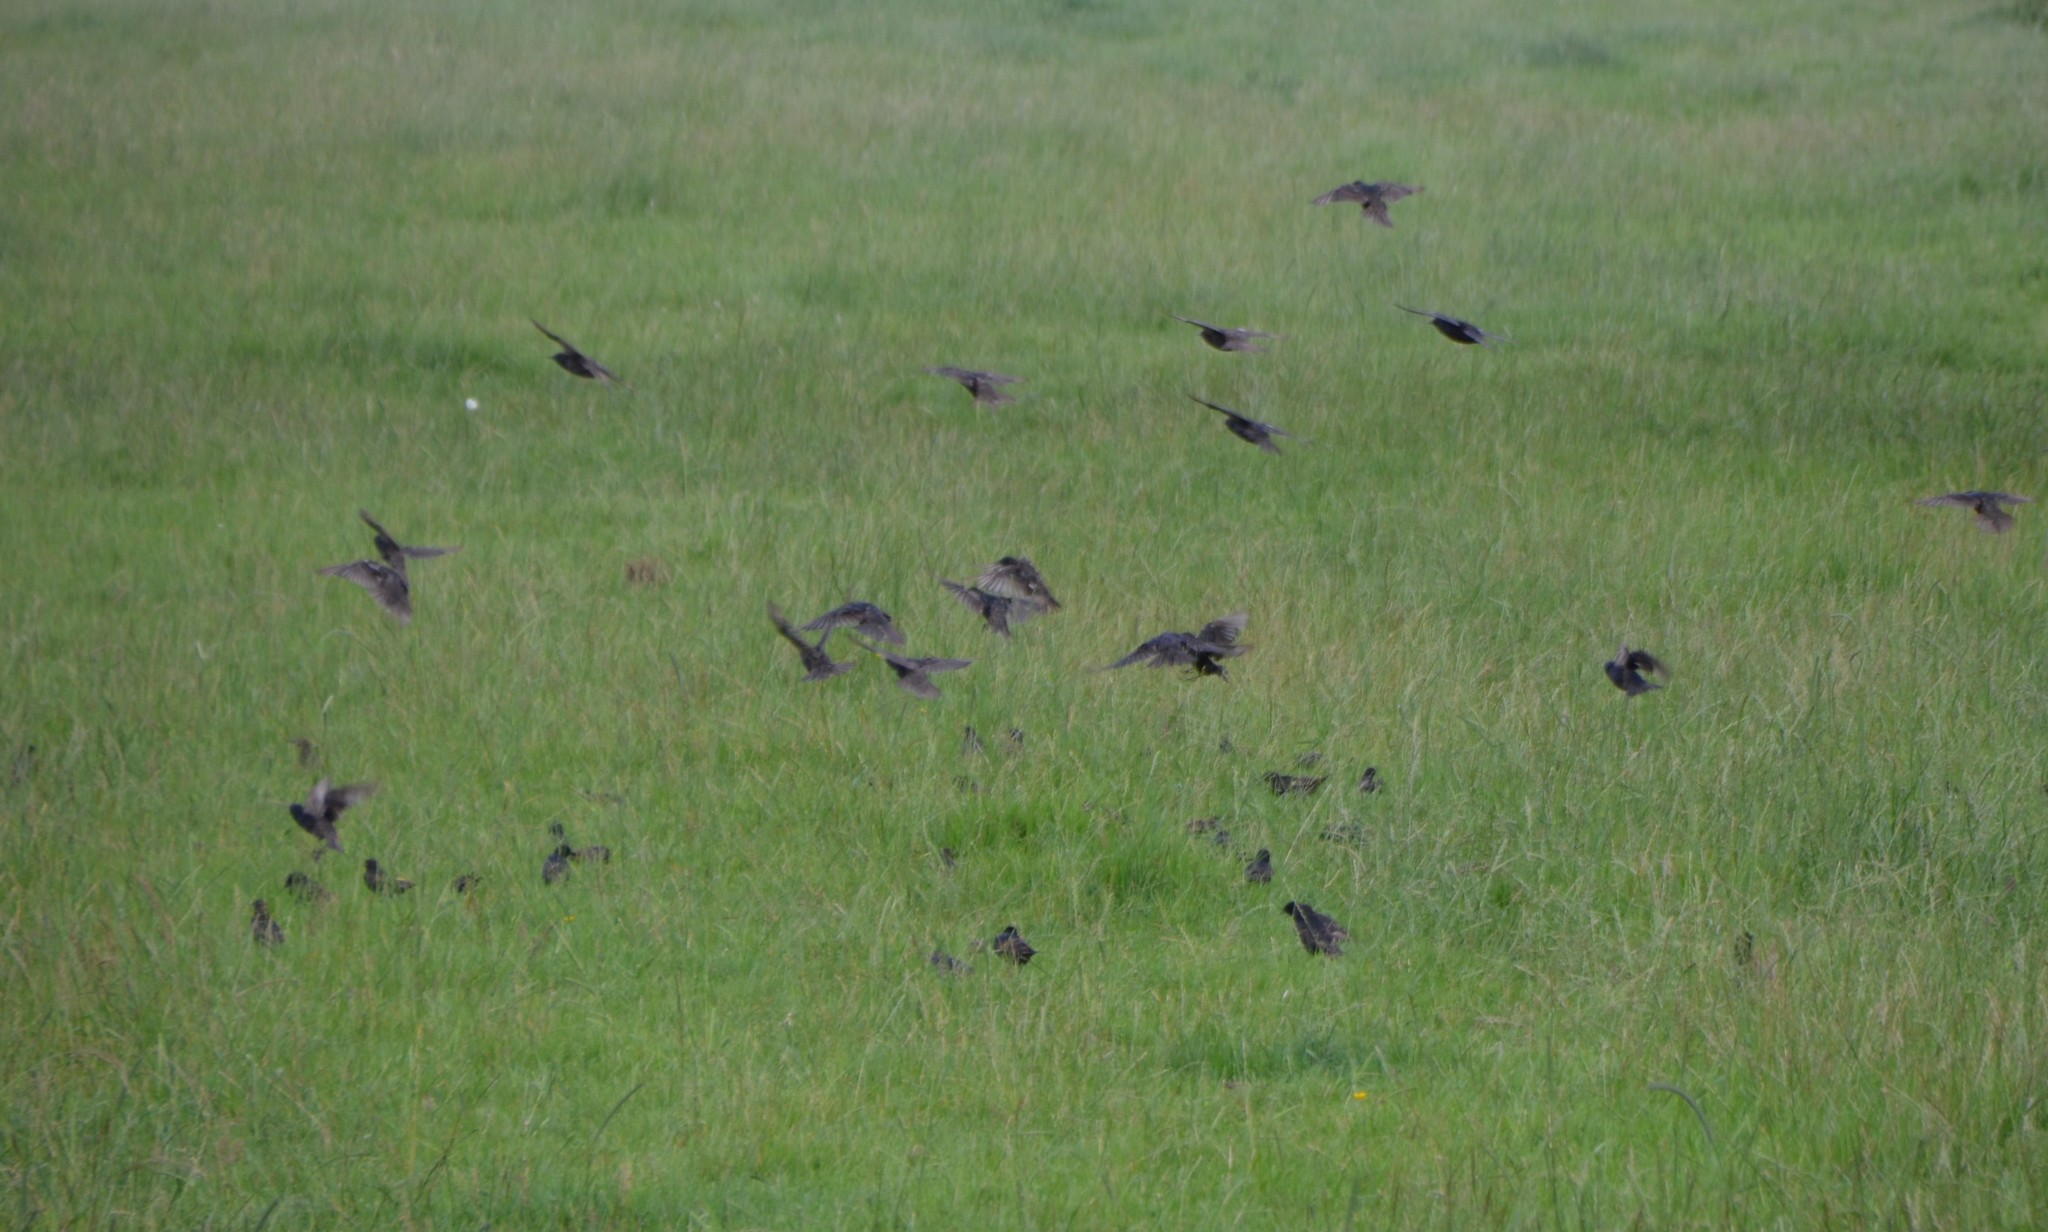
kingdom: Animalia
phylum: Chordata
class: Aves
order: Passeriformes
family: Sturnidae
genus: Sturnus
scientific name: Sturnus vulgaris
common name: Common starling
